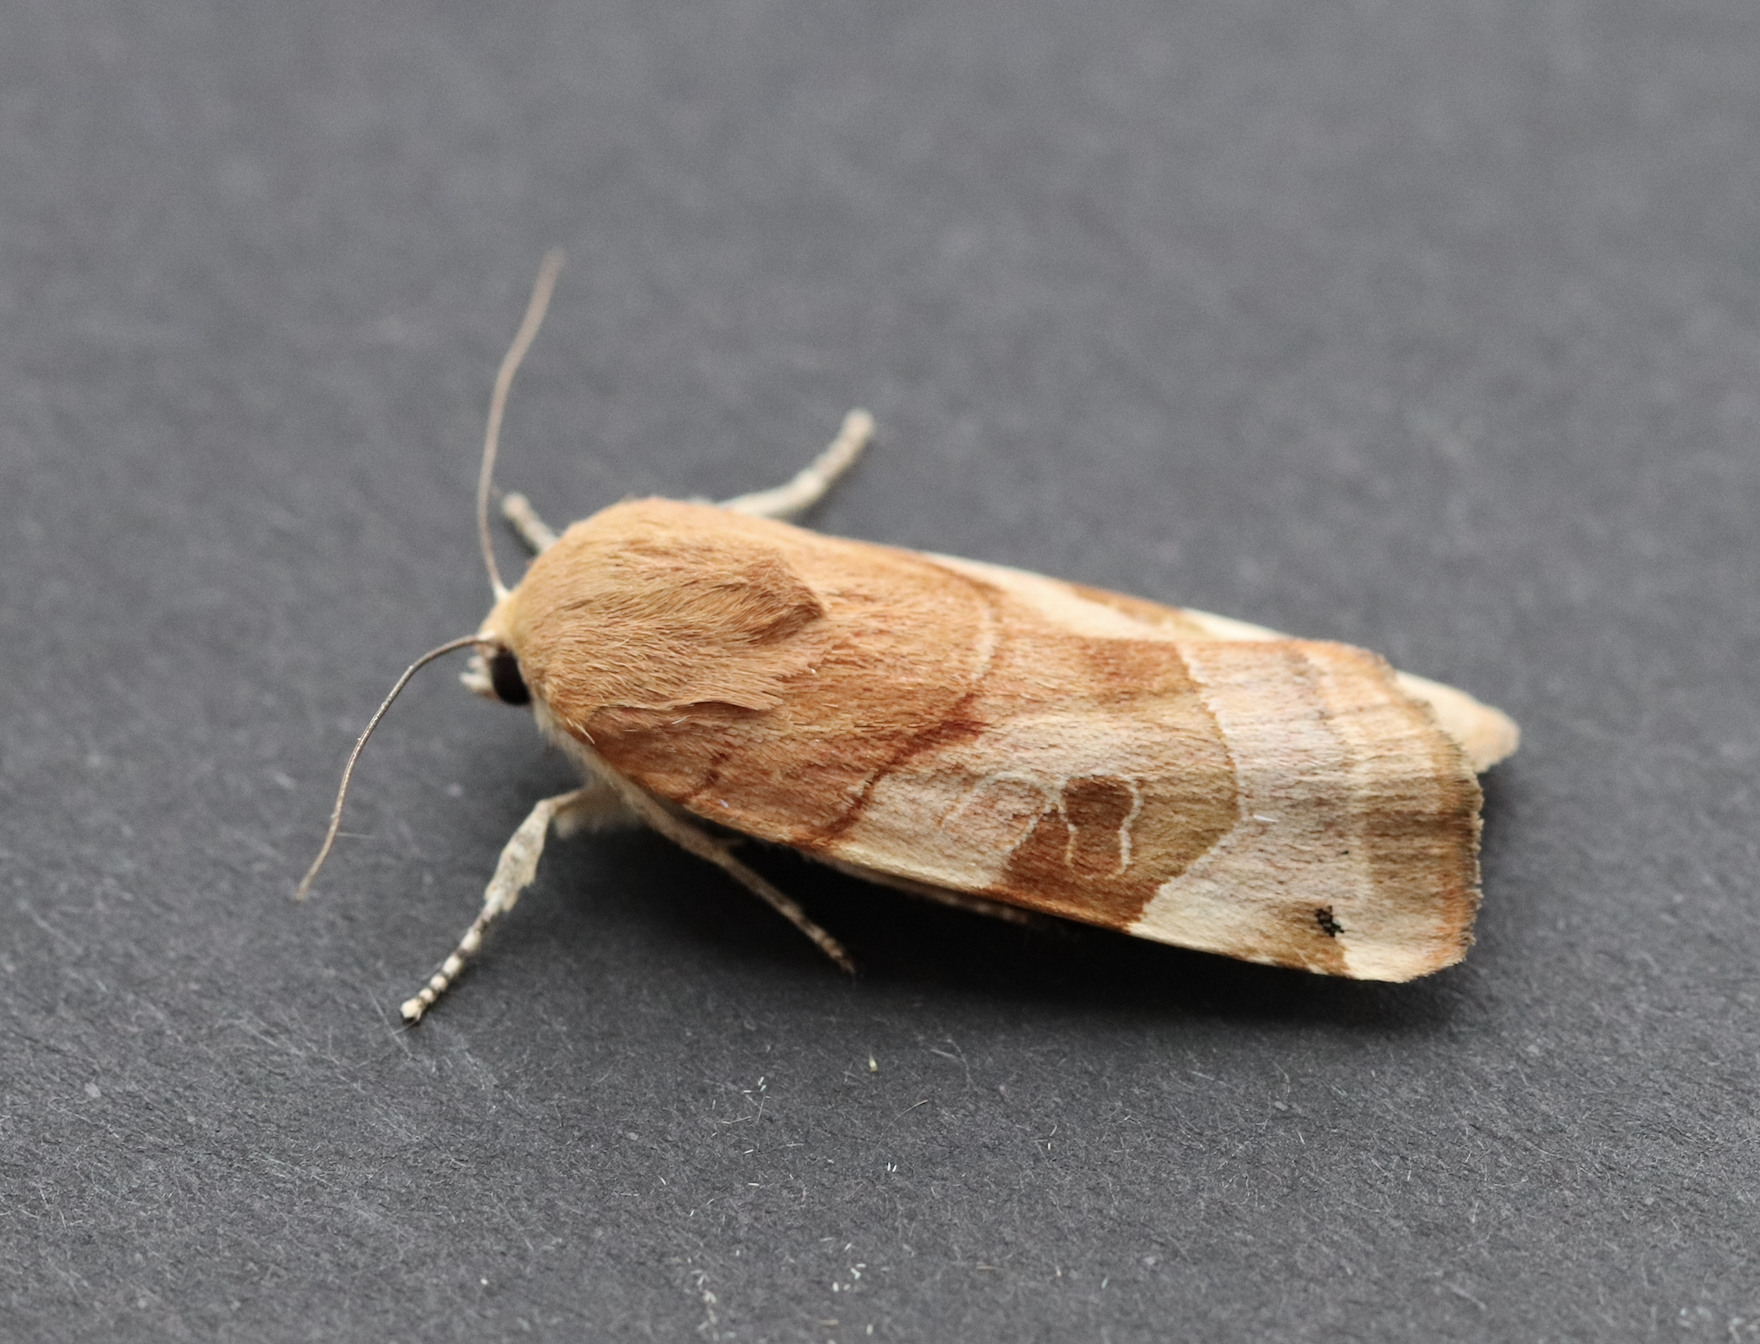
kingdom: Animalia
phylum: Arthropoda
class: Insecta
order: Lepidoptera
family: Noctuidae
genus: Noctua
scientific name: Noctua fimbriata
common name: Broad-bordered yellow underwing
